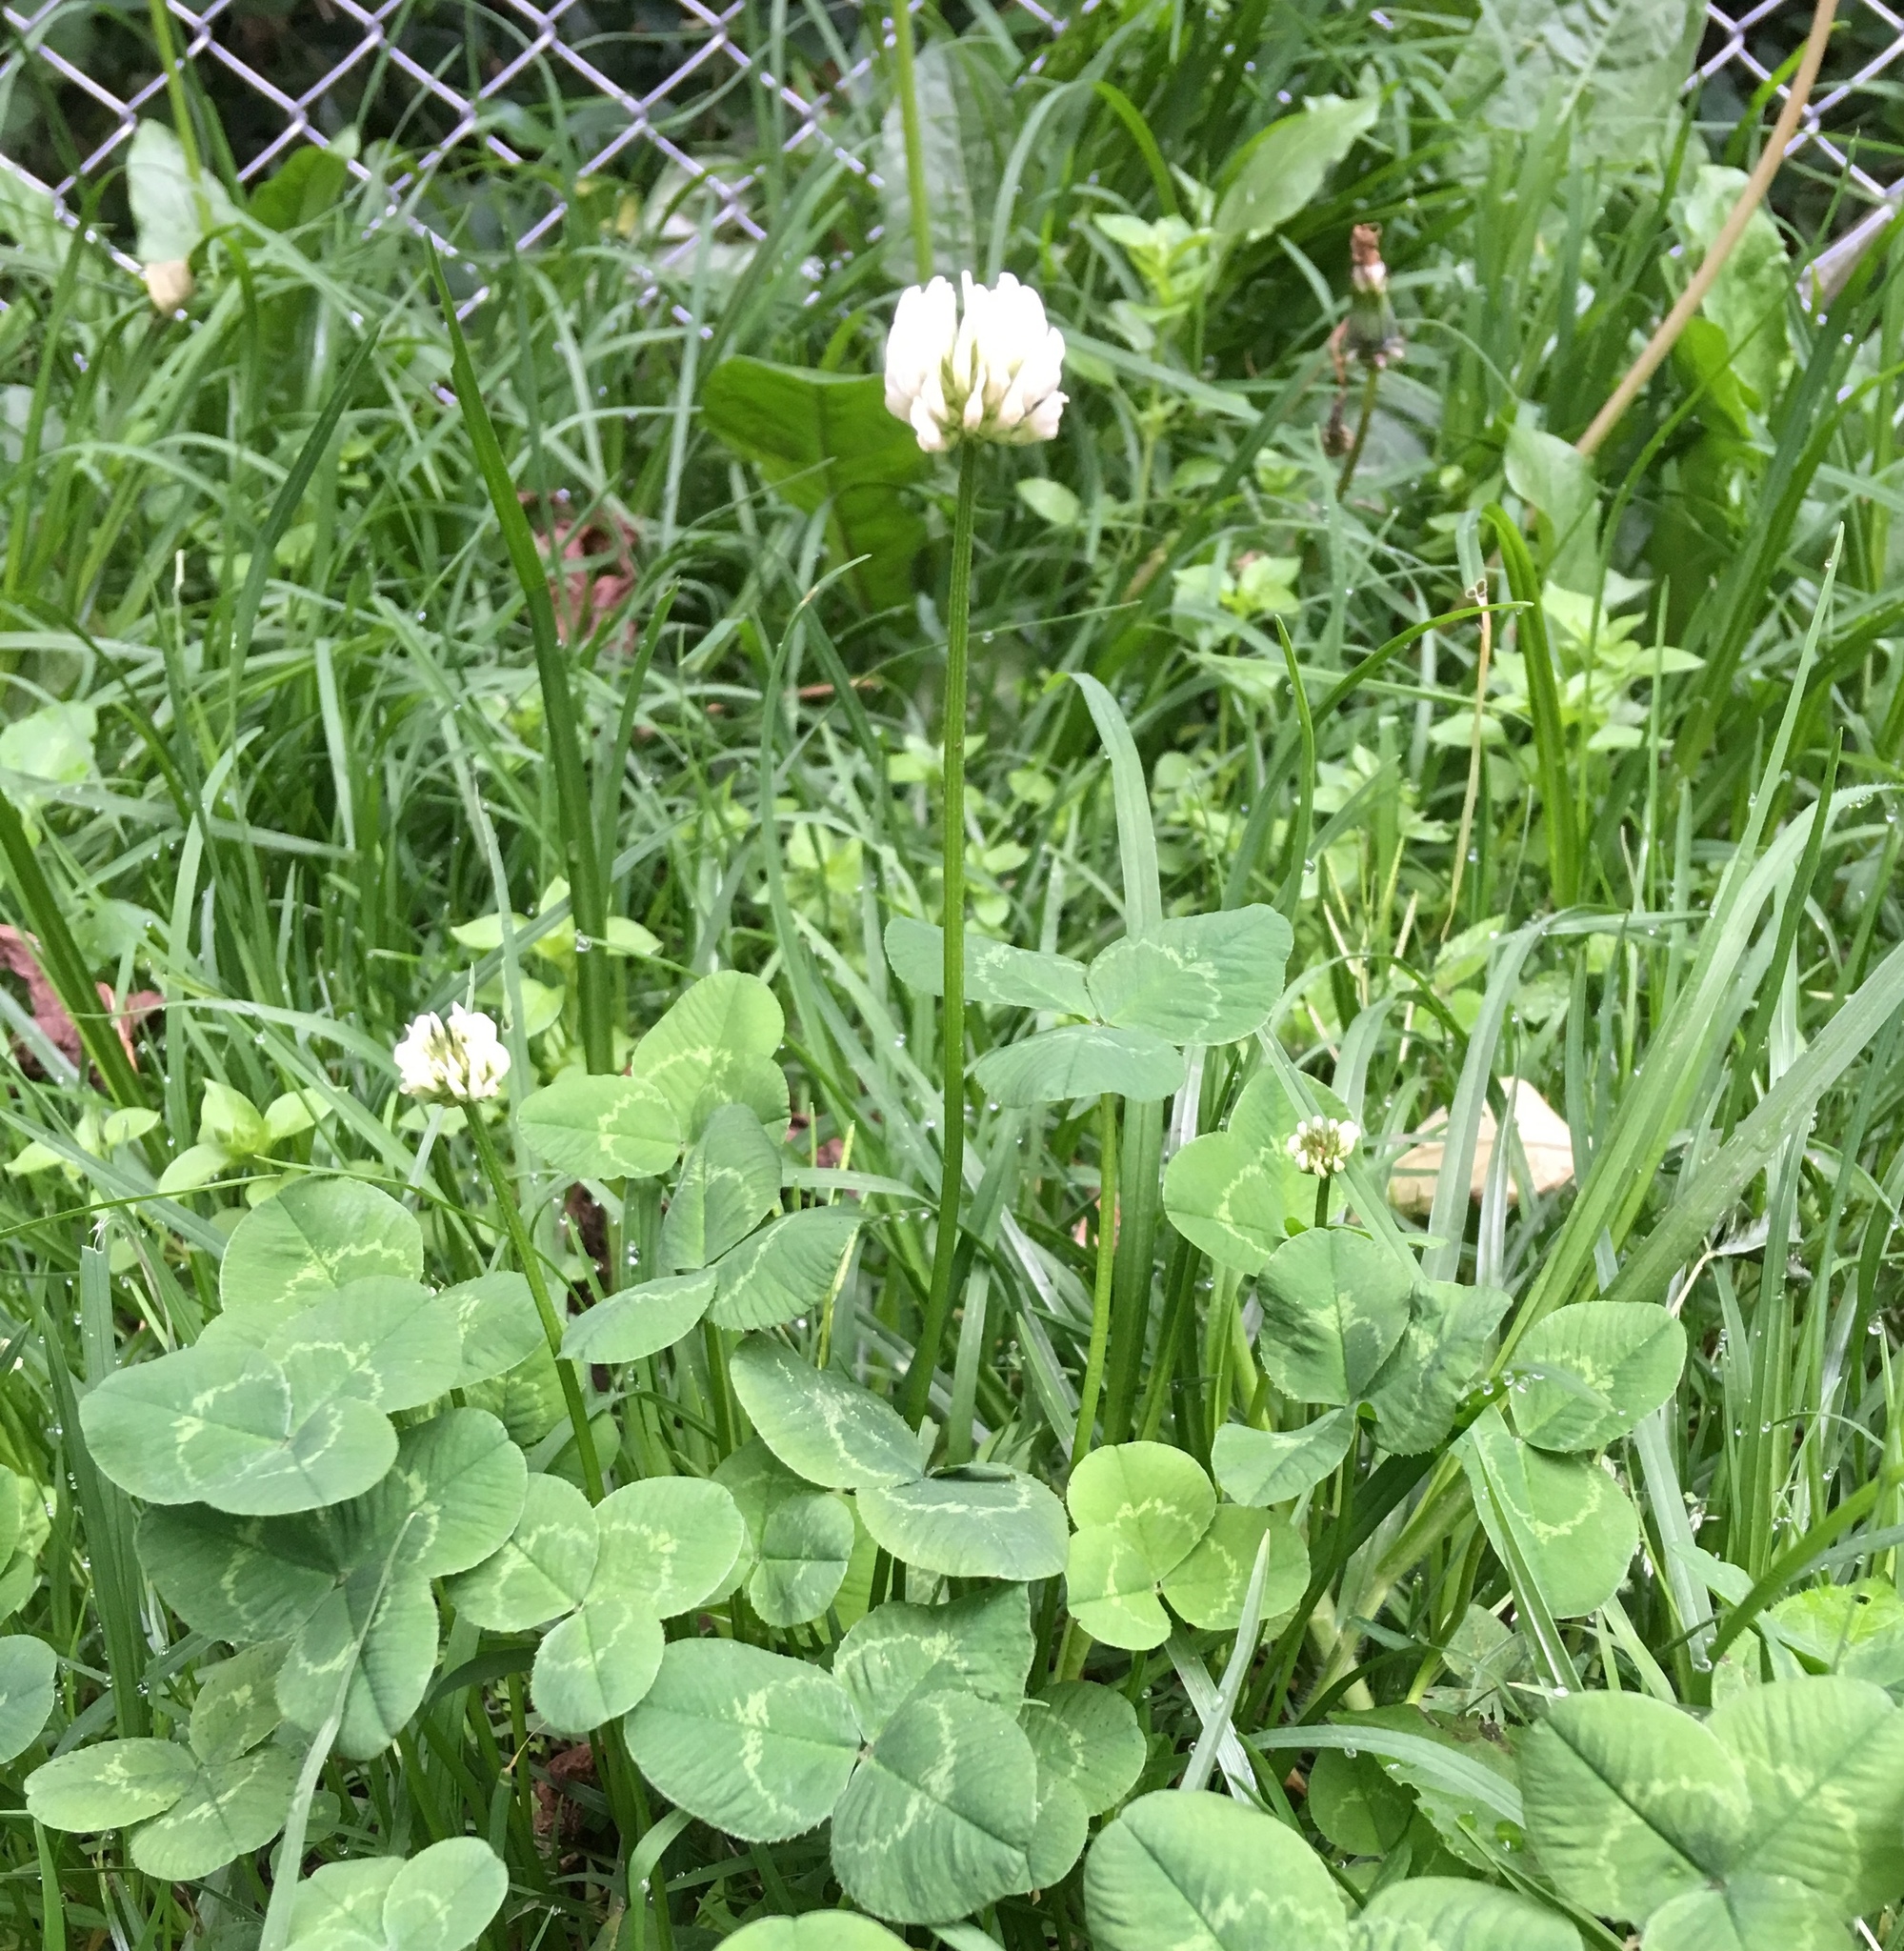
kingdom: Plantae
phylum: Tracheophyta
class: Magnoliopsida
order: Fabales
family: Fabaceae
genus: Trifolium
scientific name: Trifolium repens
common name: White clover
